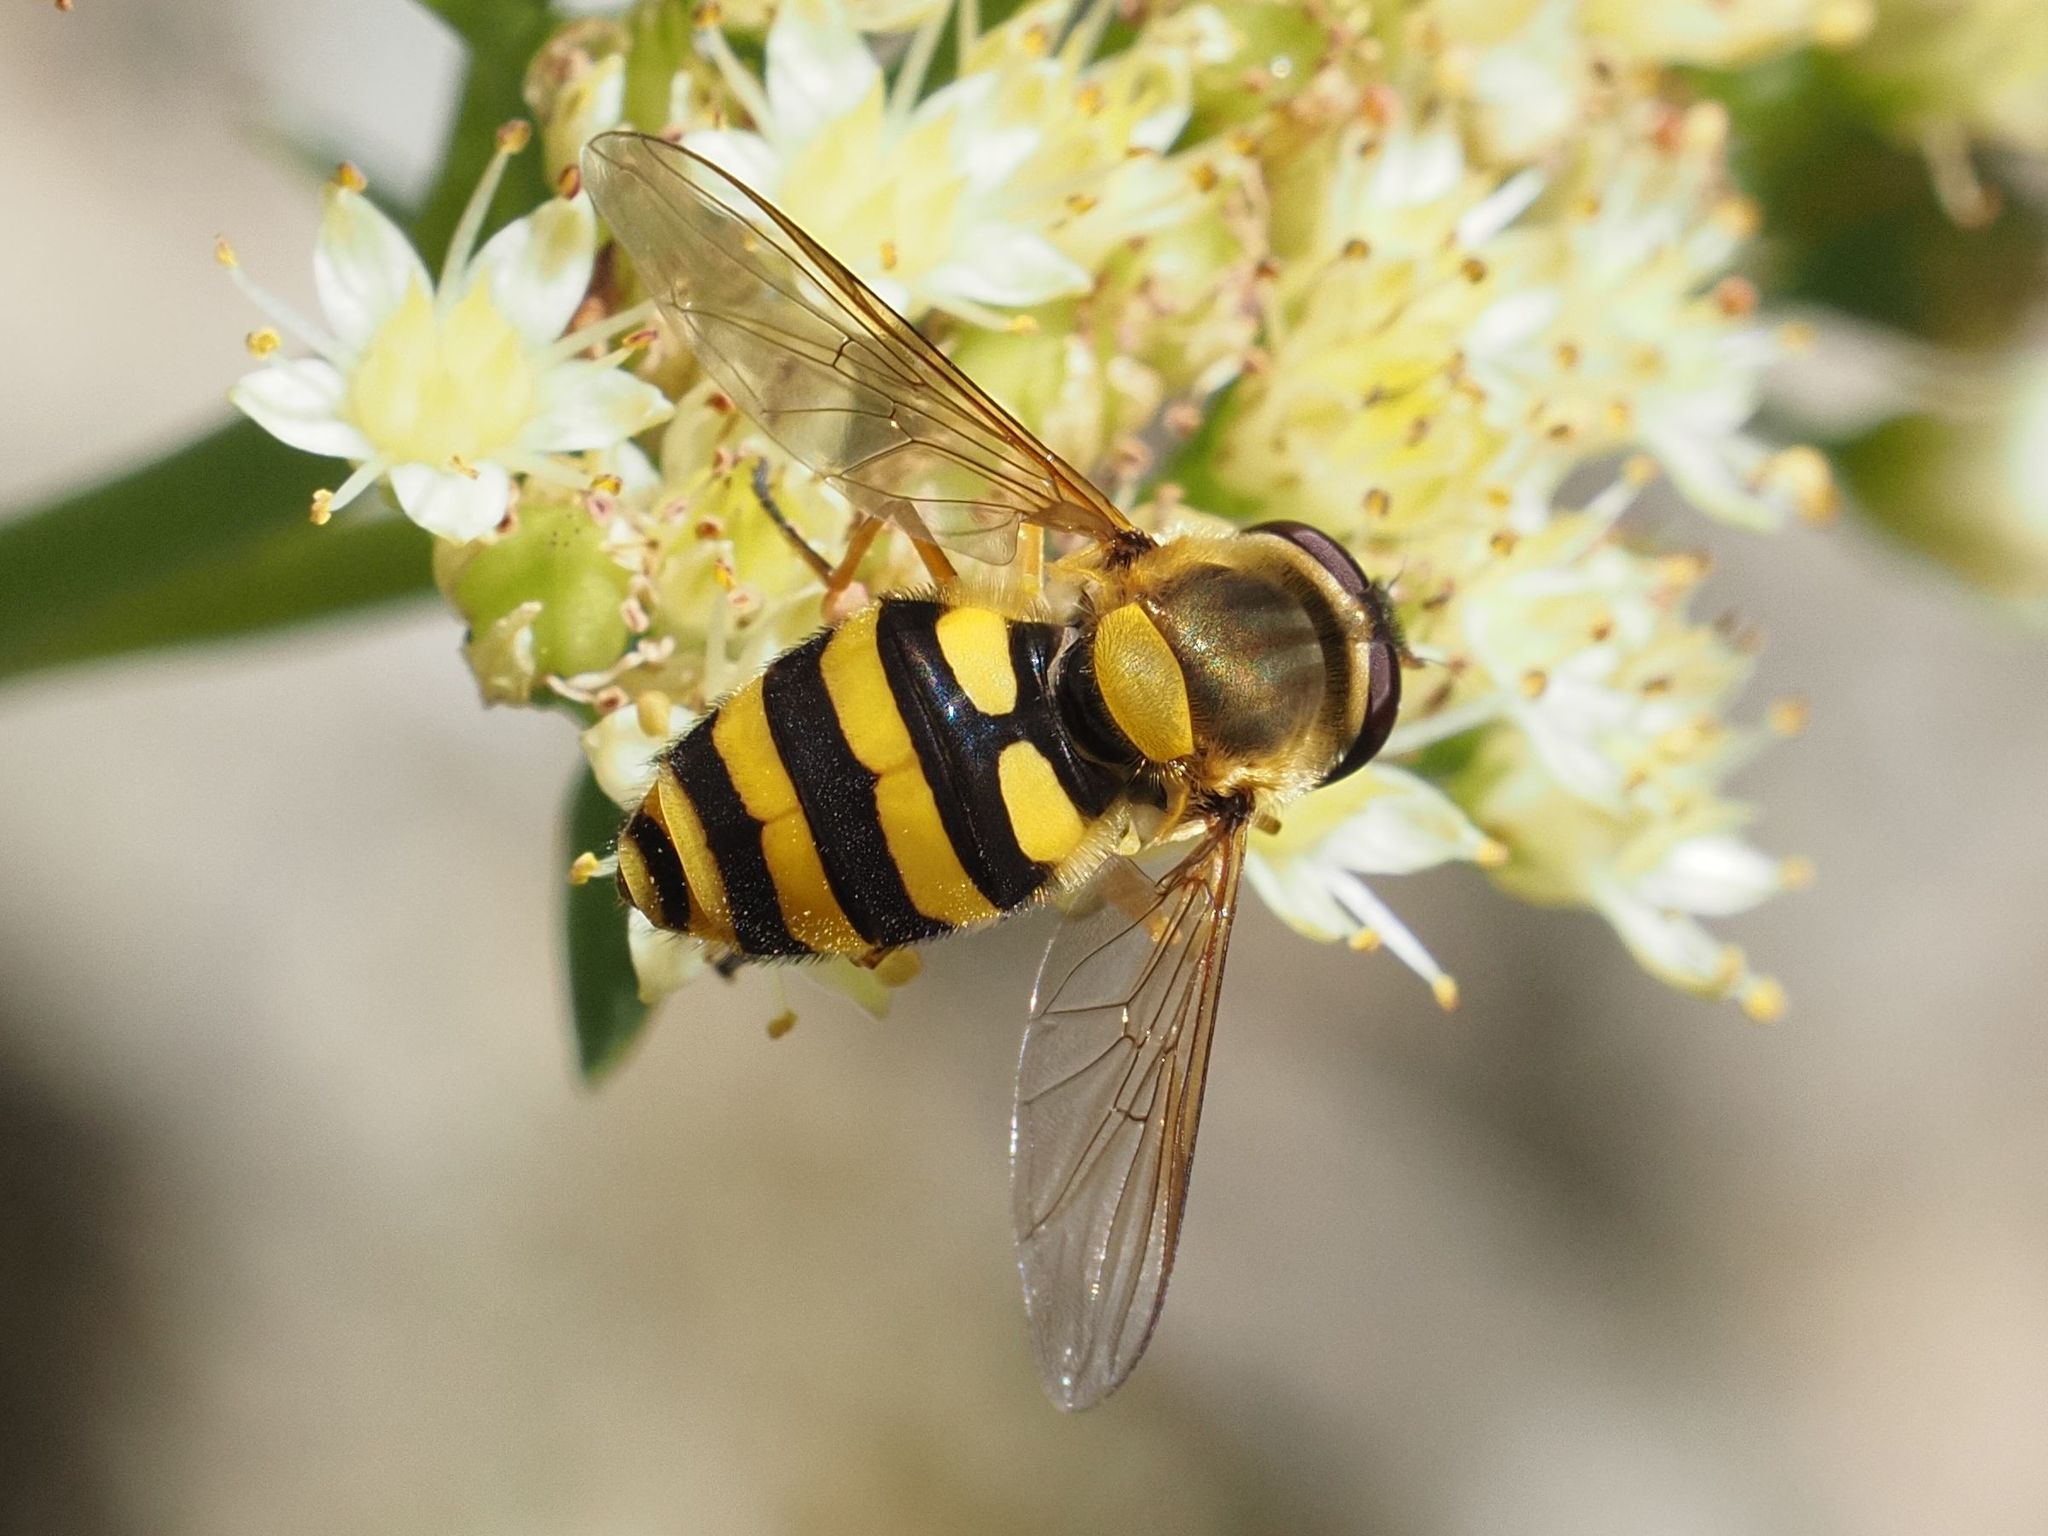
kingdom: Animalia
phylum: Arthropoda
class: Insecta
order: Diptera
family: Syrphidae
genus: Syrphus
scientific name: Syrphus ribesii
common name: Common flower fly
